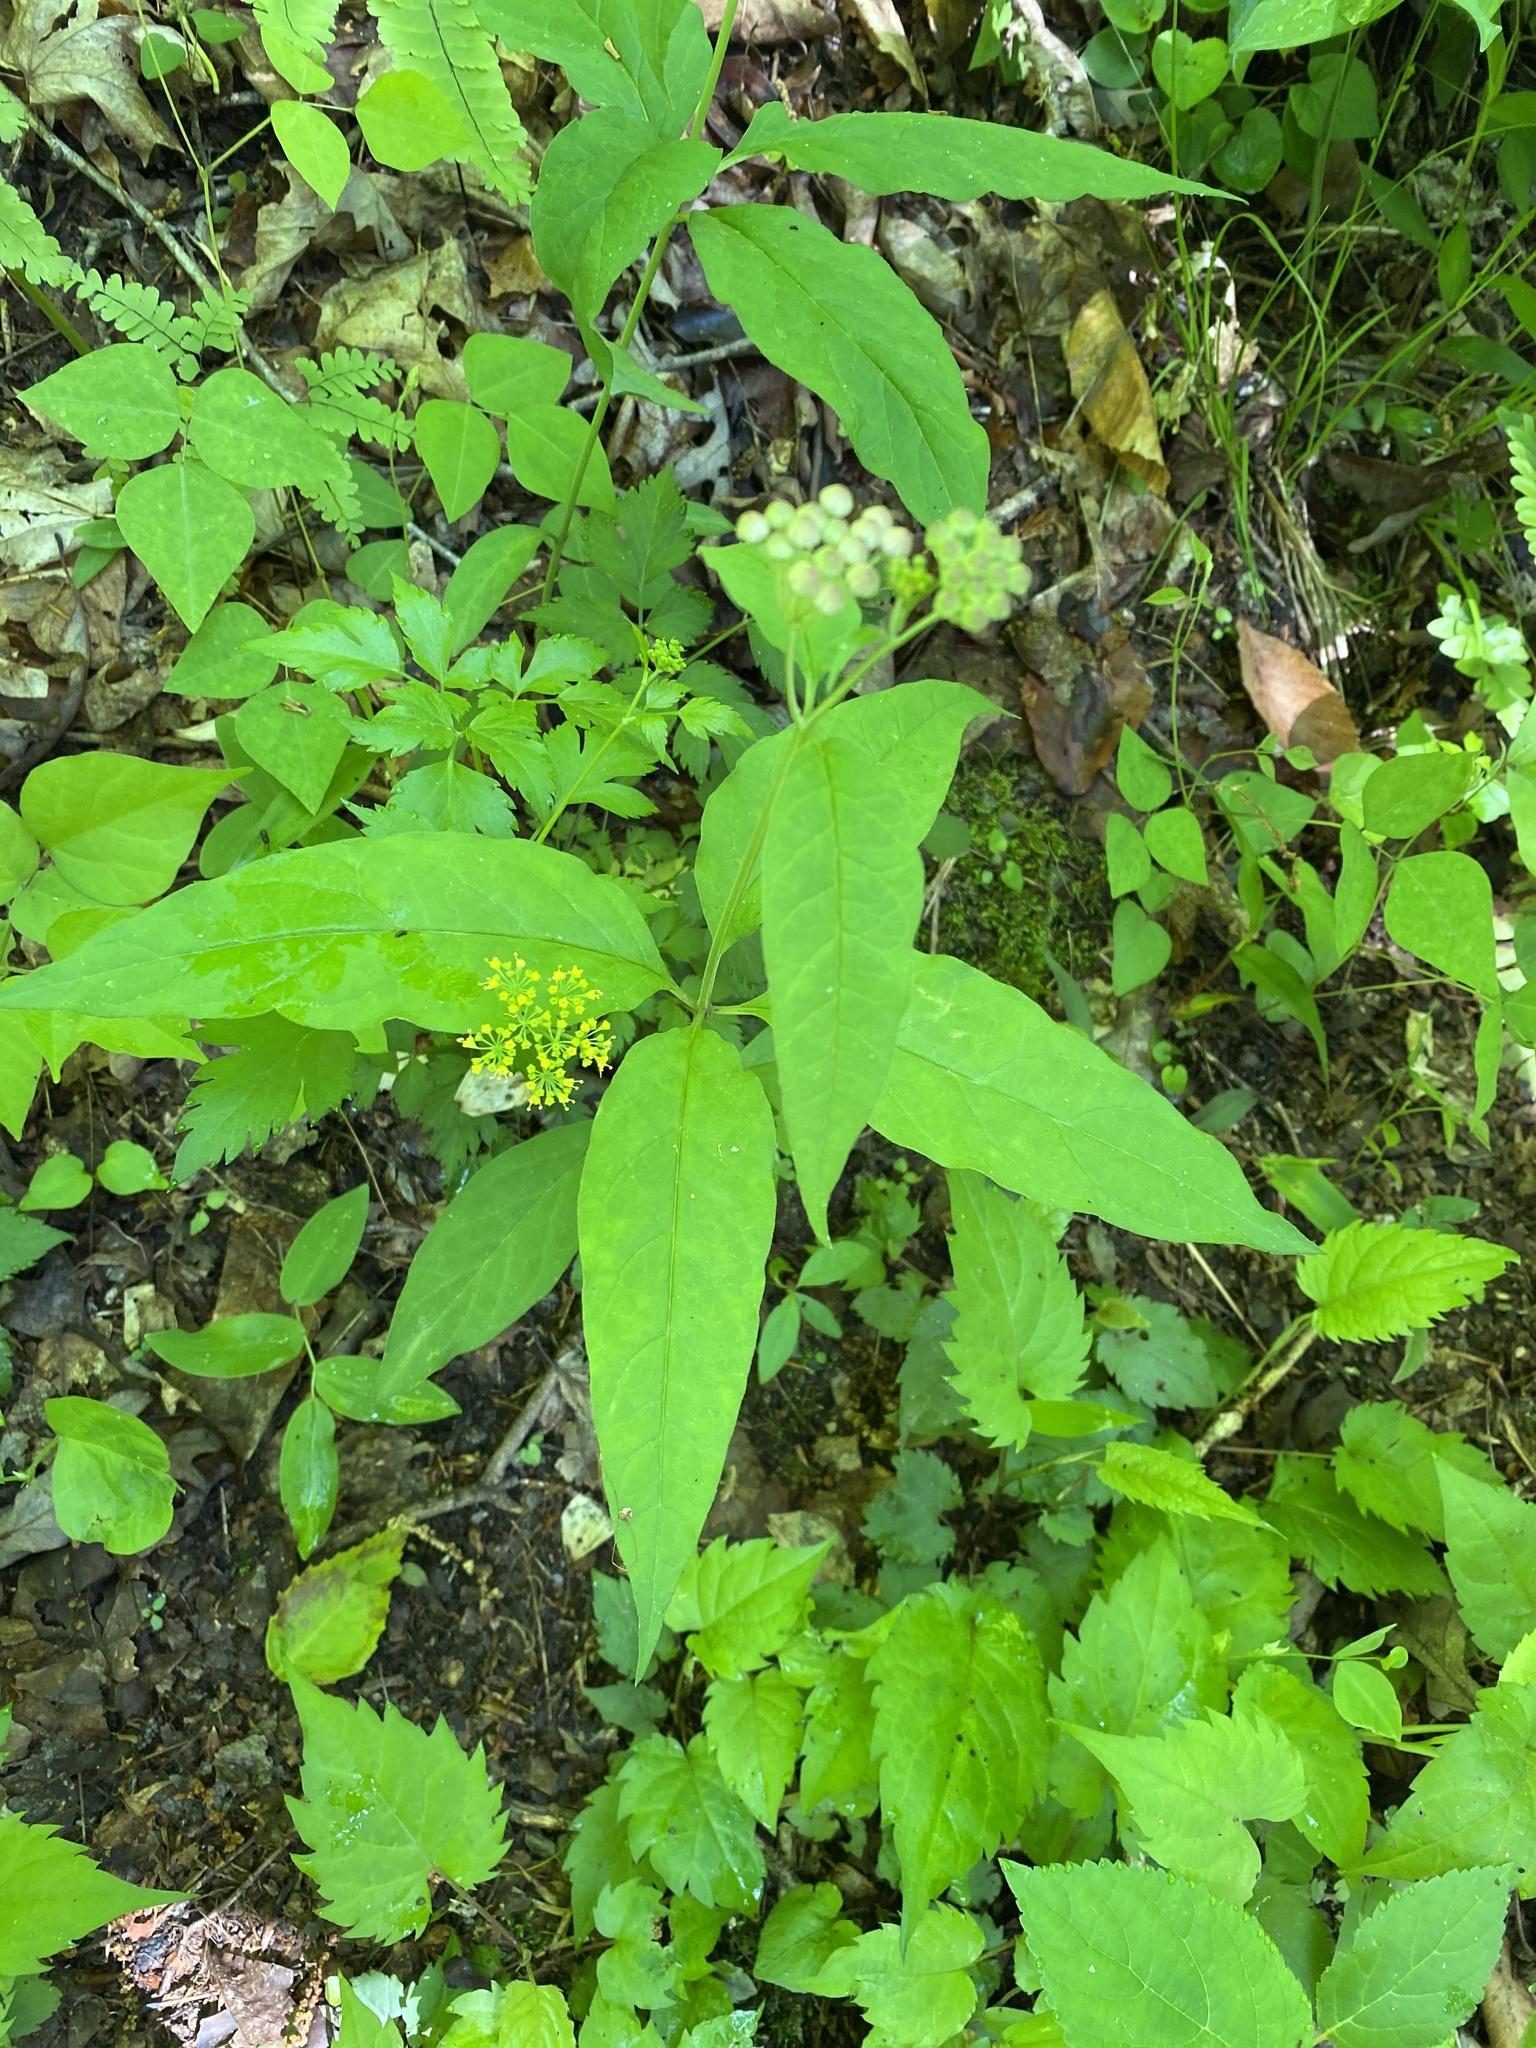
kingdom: Plantae
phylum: Tracheophyta
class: Magnoliopsida
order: Gentianales
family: Apocynaceae
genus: Asclepias
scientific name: Asclepias quadrifolia
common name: Whorled milkweed
